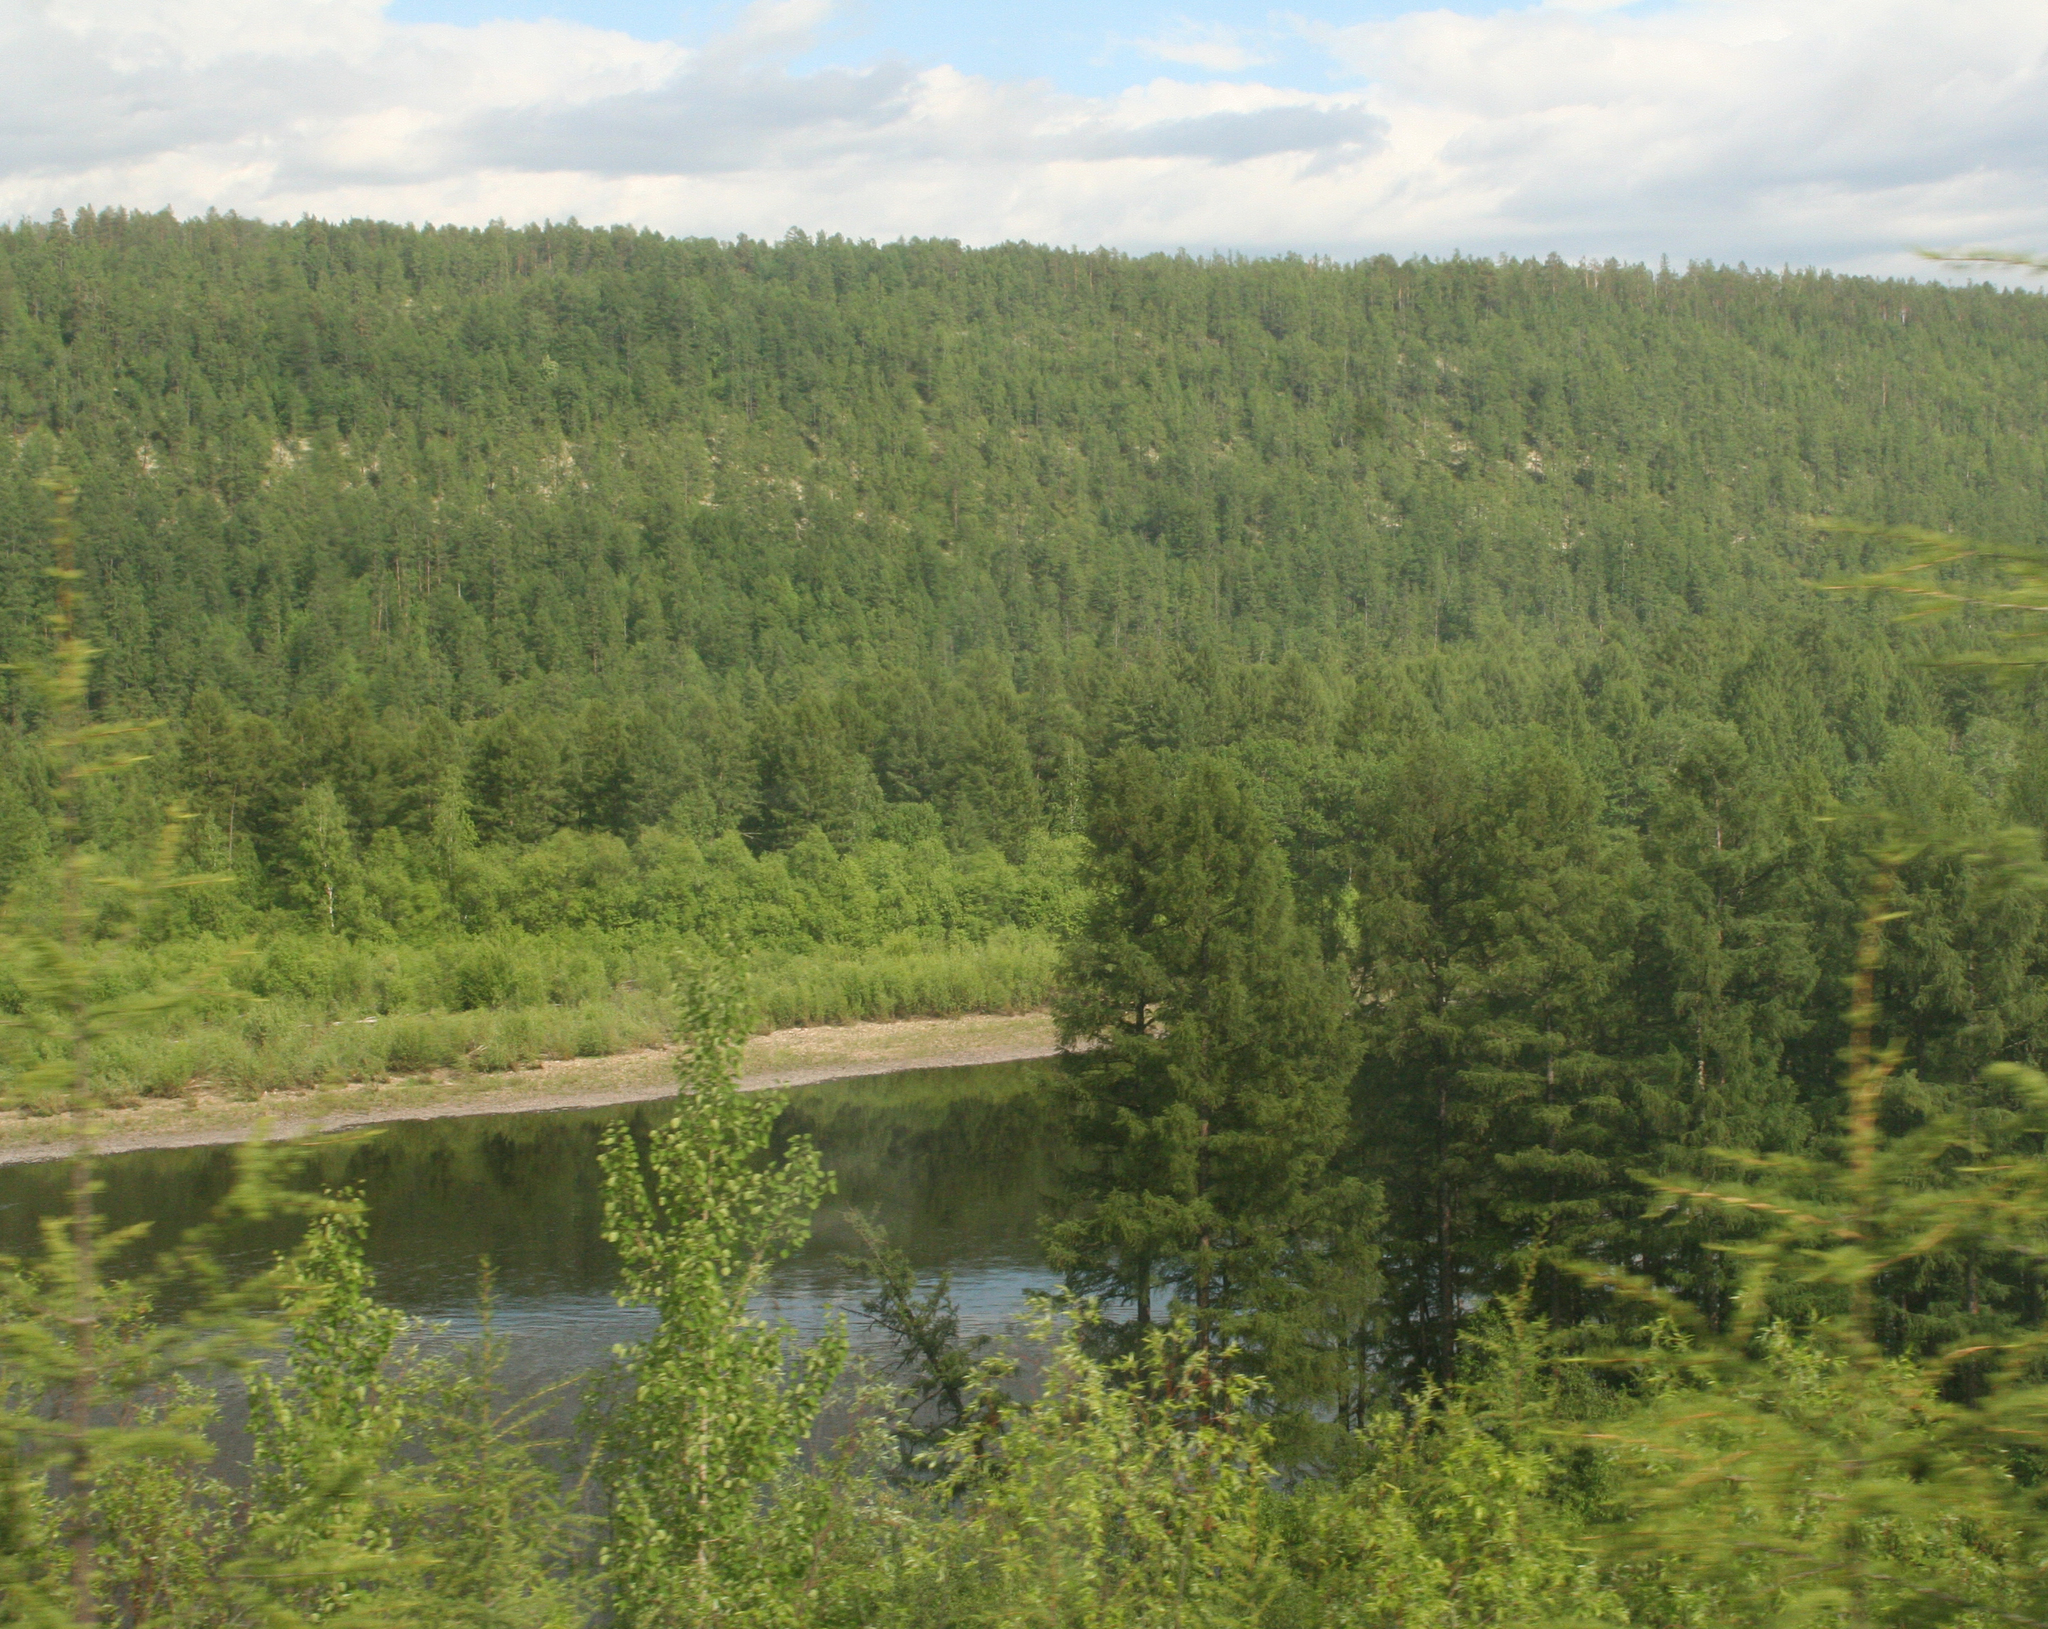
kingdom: Plantae
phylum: Tracheophyta
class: Pinopsida
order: Pinales
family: Pinaceae
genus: Larix
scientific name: Larix gmelinii
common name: Dahurian larch
